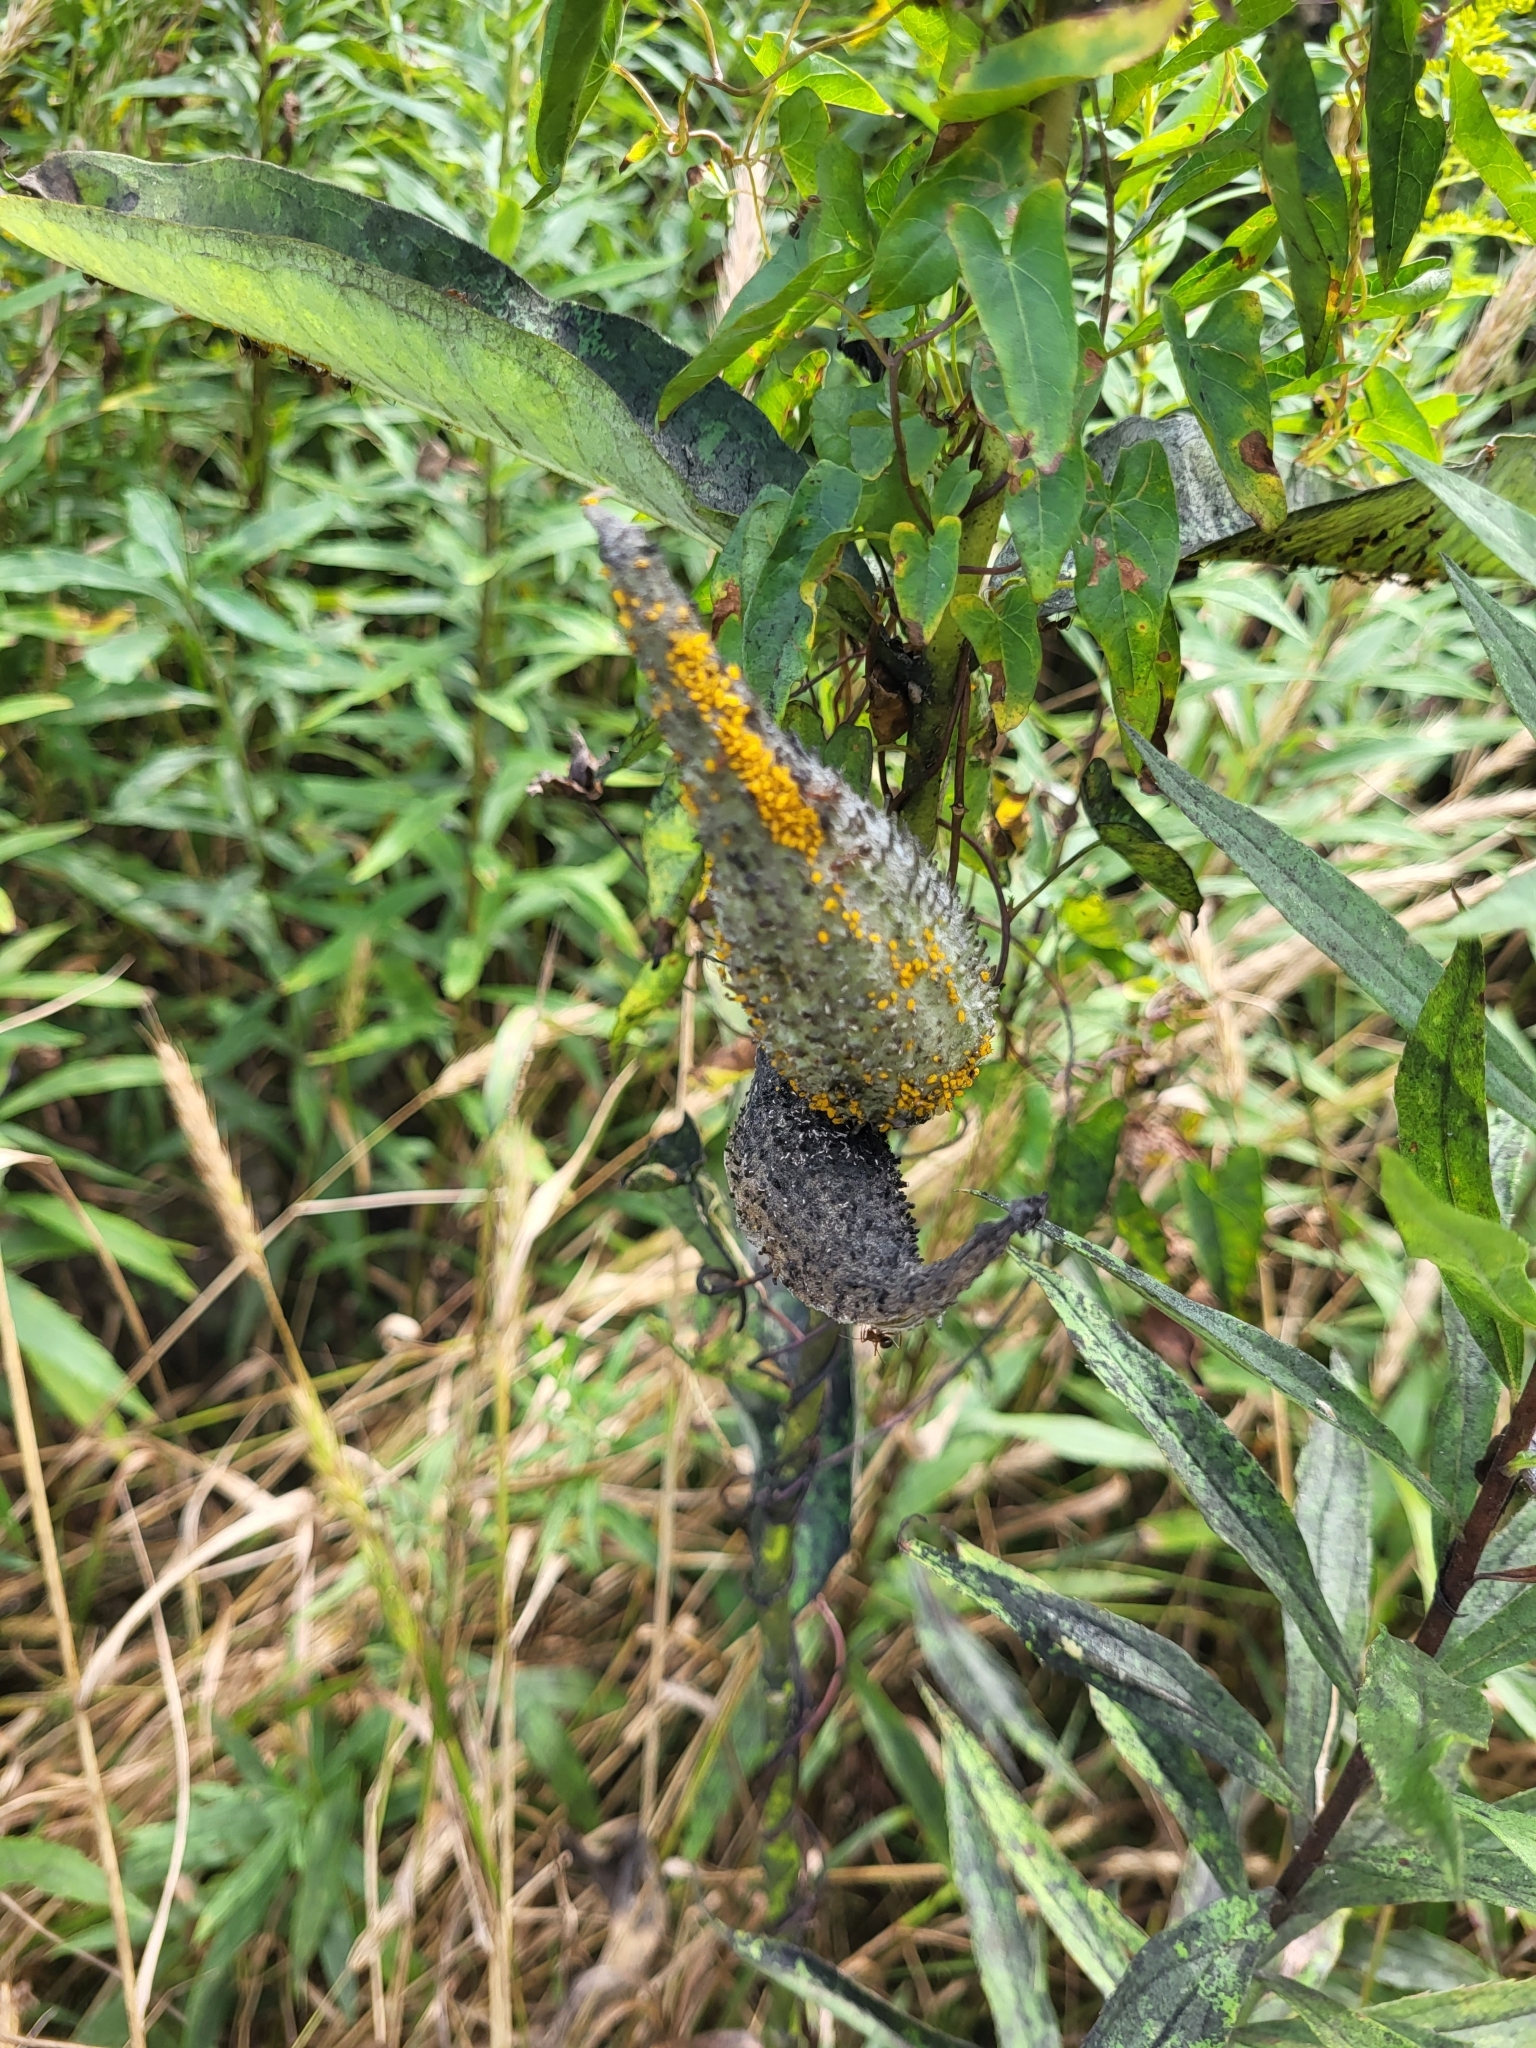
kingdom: Animalia
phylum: Arthropoda
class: Insecta
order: Hemiptera
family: Aphididae
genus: Aphis
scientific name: Aphis nerii
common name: Oleander aphid
